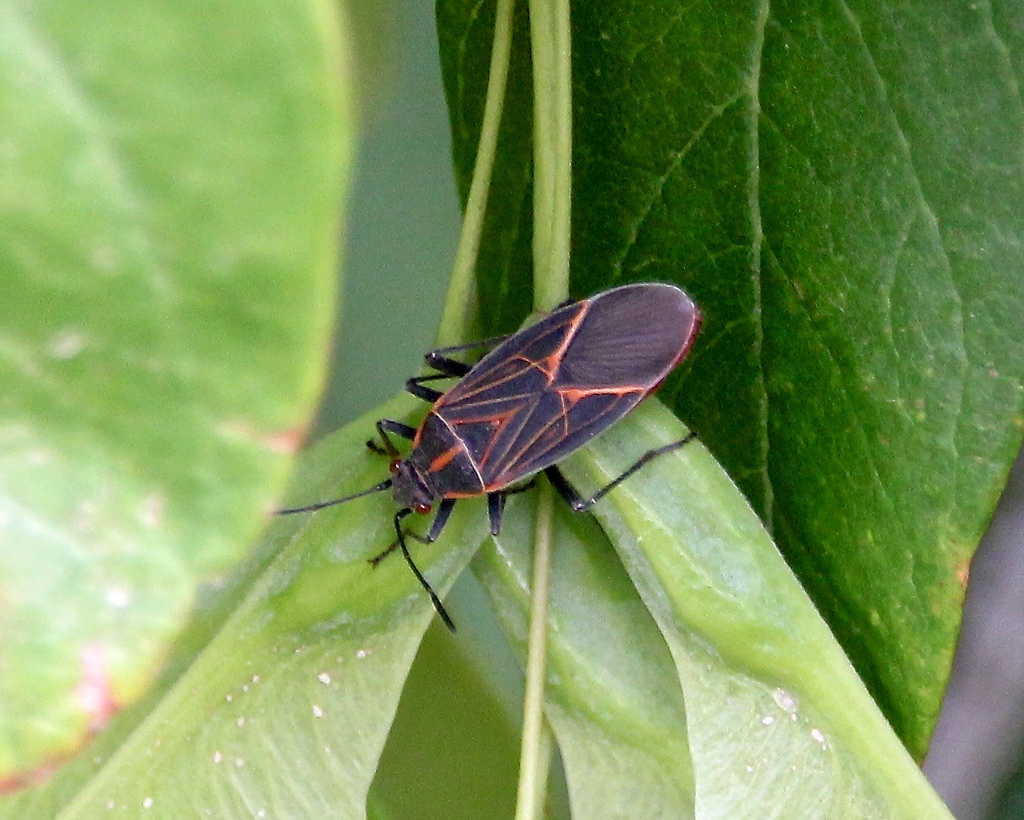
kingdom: Animalia
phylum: Arthropoda
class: Insecta
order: Hemiptera
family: Rhopalidae
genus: Boisea
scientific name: Boisea rubrolineata
